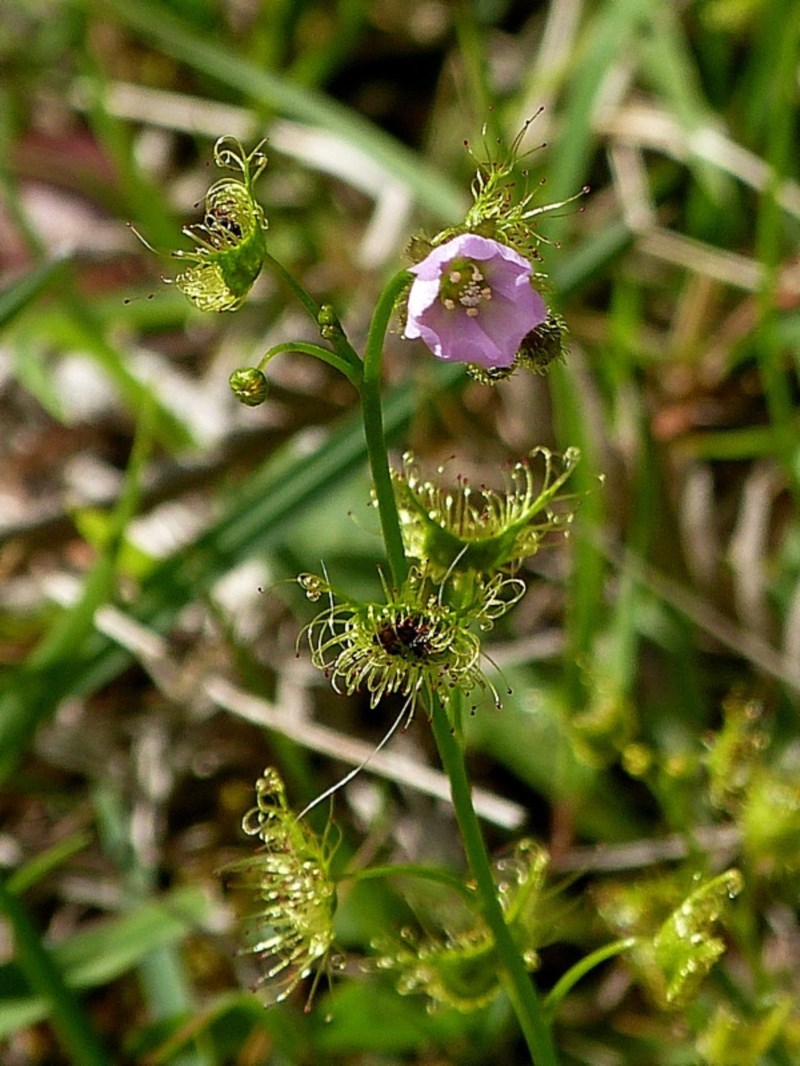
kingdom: Plantae
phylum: Tracheophyta
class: Magnoliopsida
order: Caryophyllales
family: Droseraceae
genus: Drosera
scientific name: Drosera gunniana
